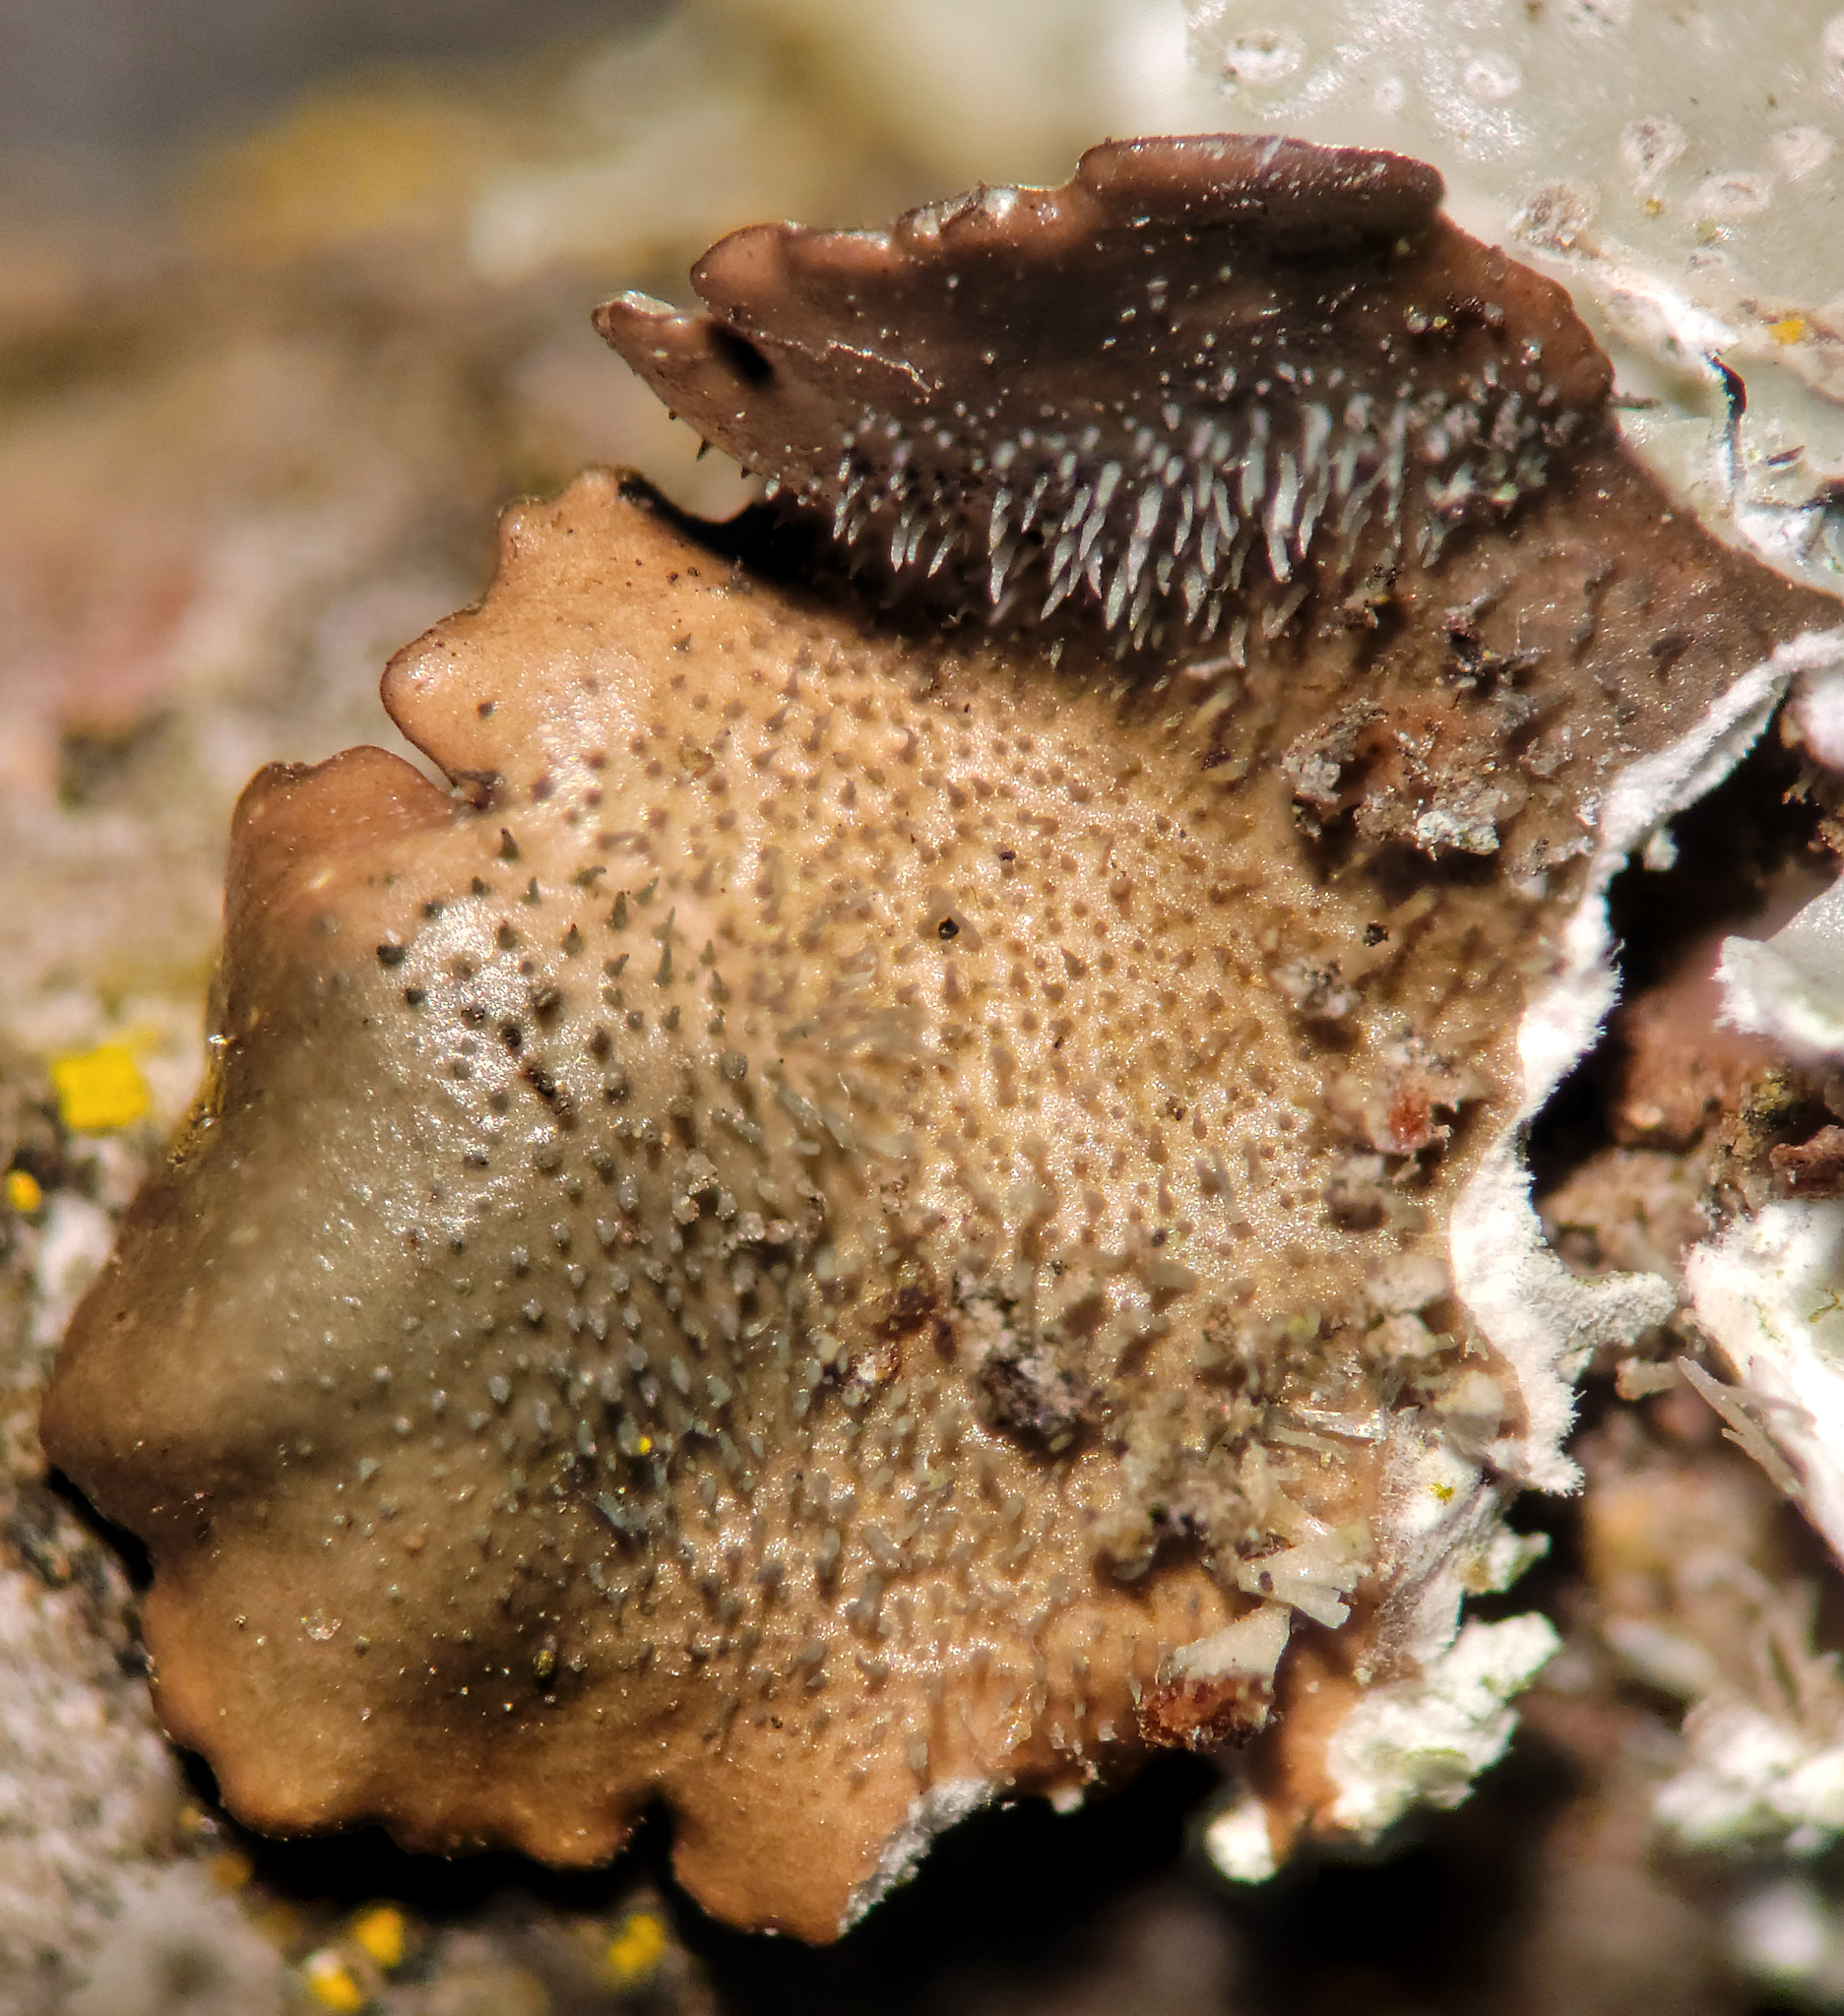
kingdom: Fungi
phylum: Ascomycota
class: Lecanoromycetes
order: Lecanorales
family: Parmeliaceae
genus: Punctelia
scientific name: Punctelia missouriensis
